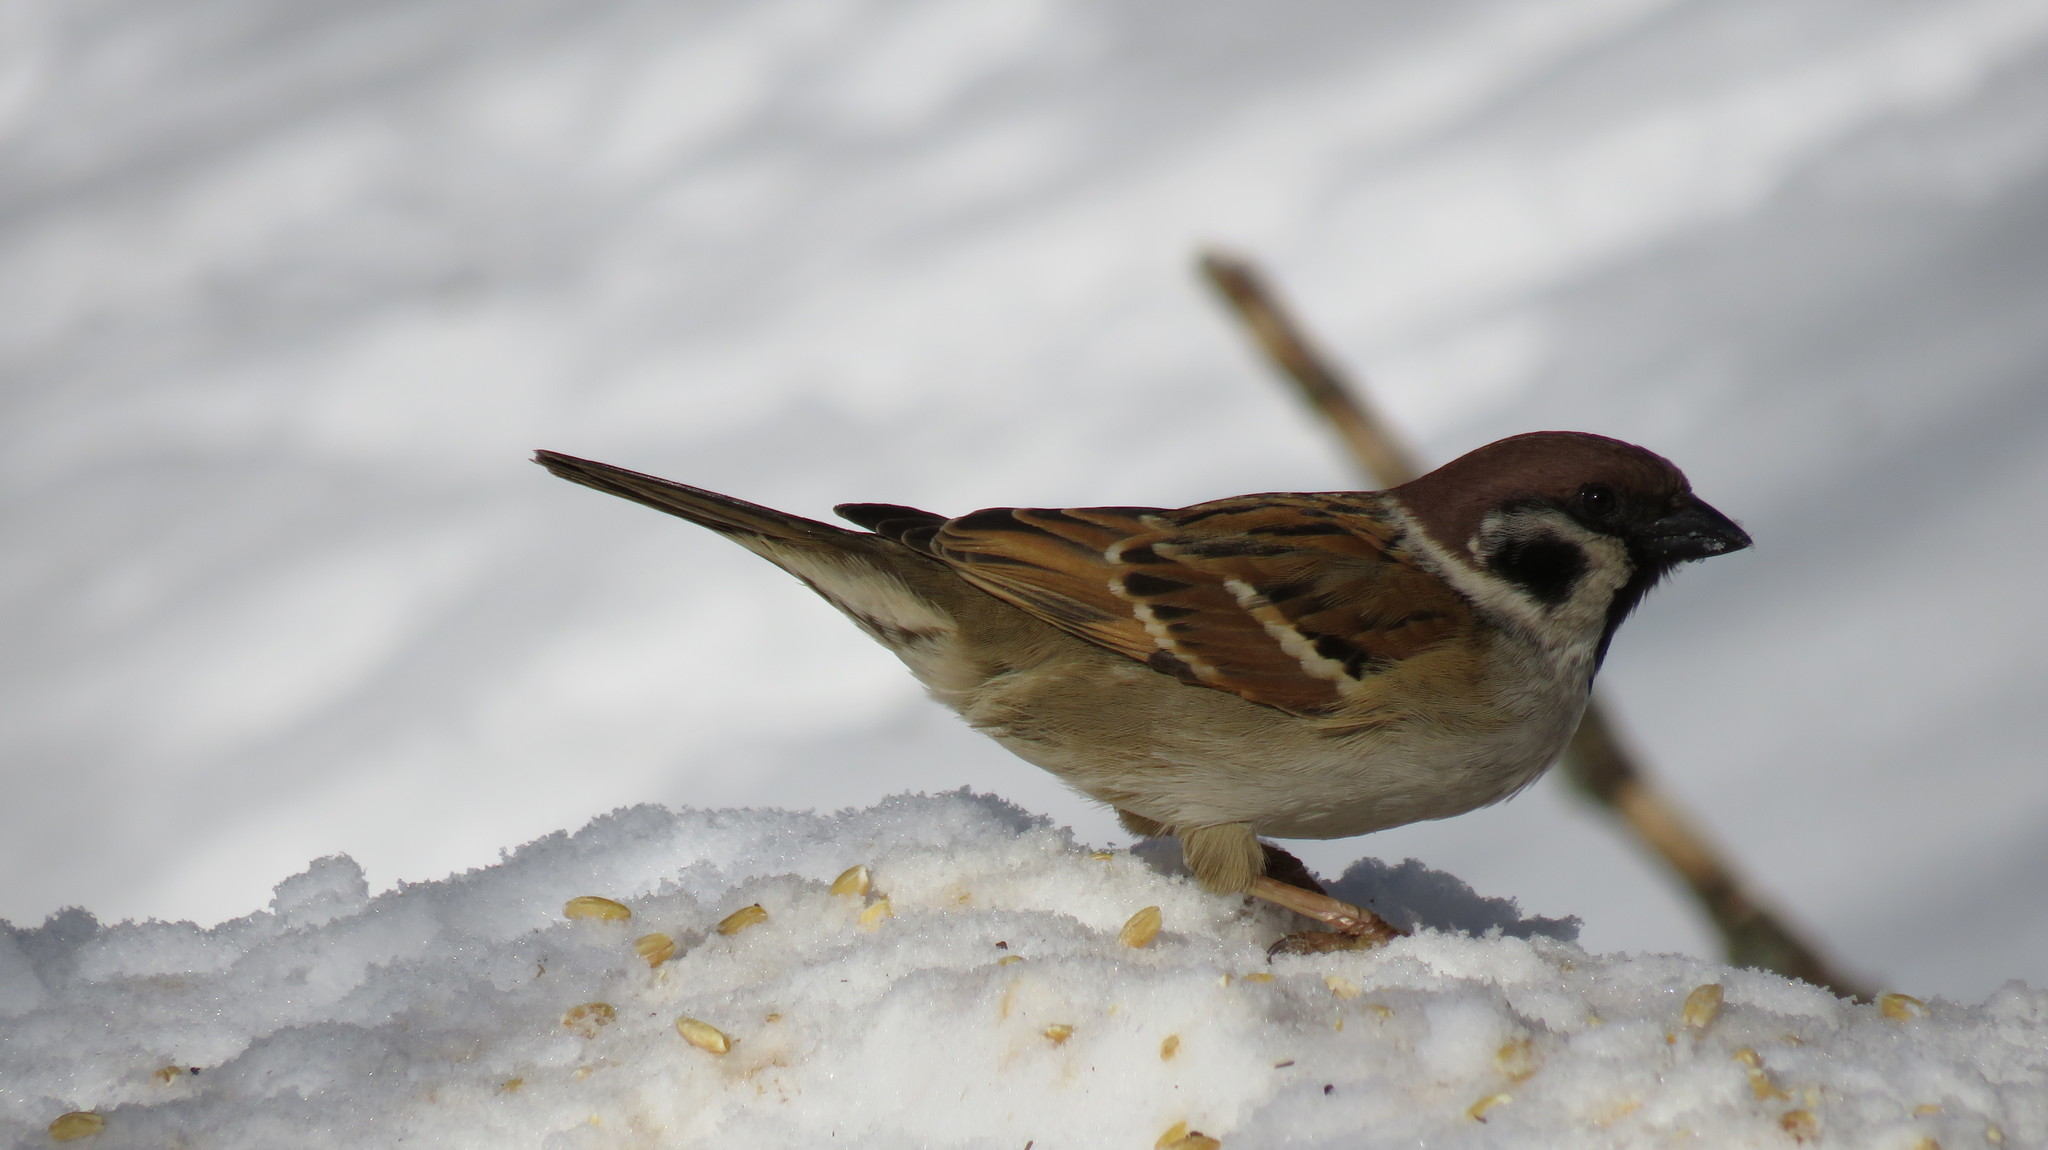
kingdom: Animalia
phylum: Chordata
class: Aves
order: Passeriformes
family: Passeridae
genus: Passer
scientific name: Passer montanus
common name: Eurasian tree sparrow
